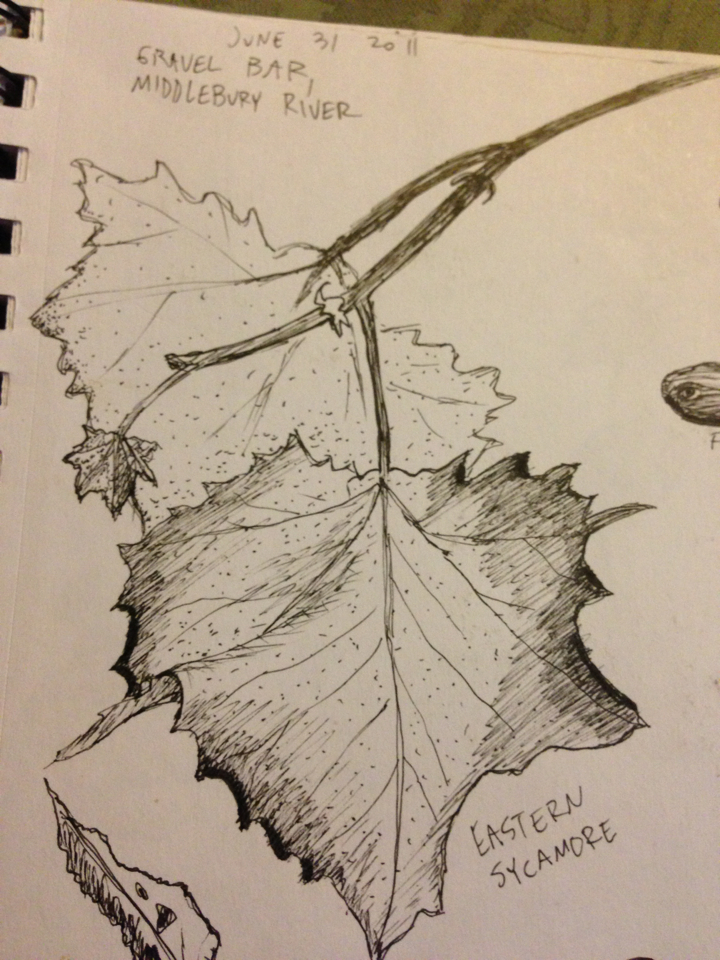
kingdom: Plantae
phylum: Tracheophyta
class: Magnoliopsida
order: Proteales
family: Platanaceae
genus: Platanus
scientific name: Platanus occidentalis
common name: American sycamore
